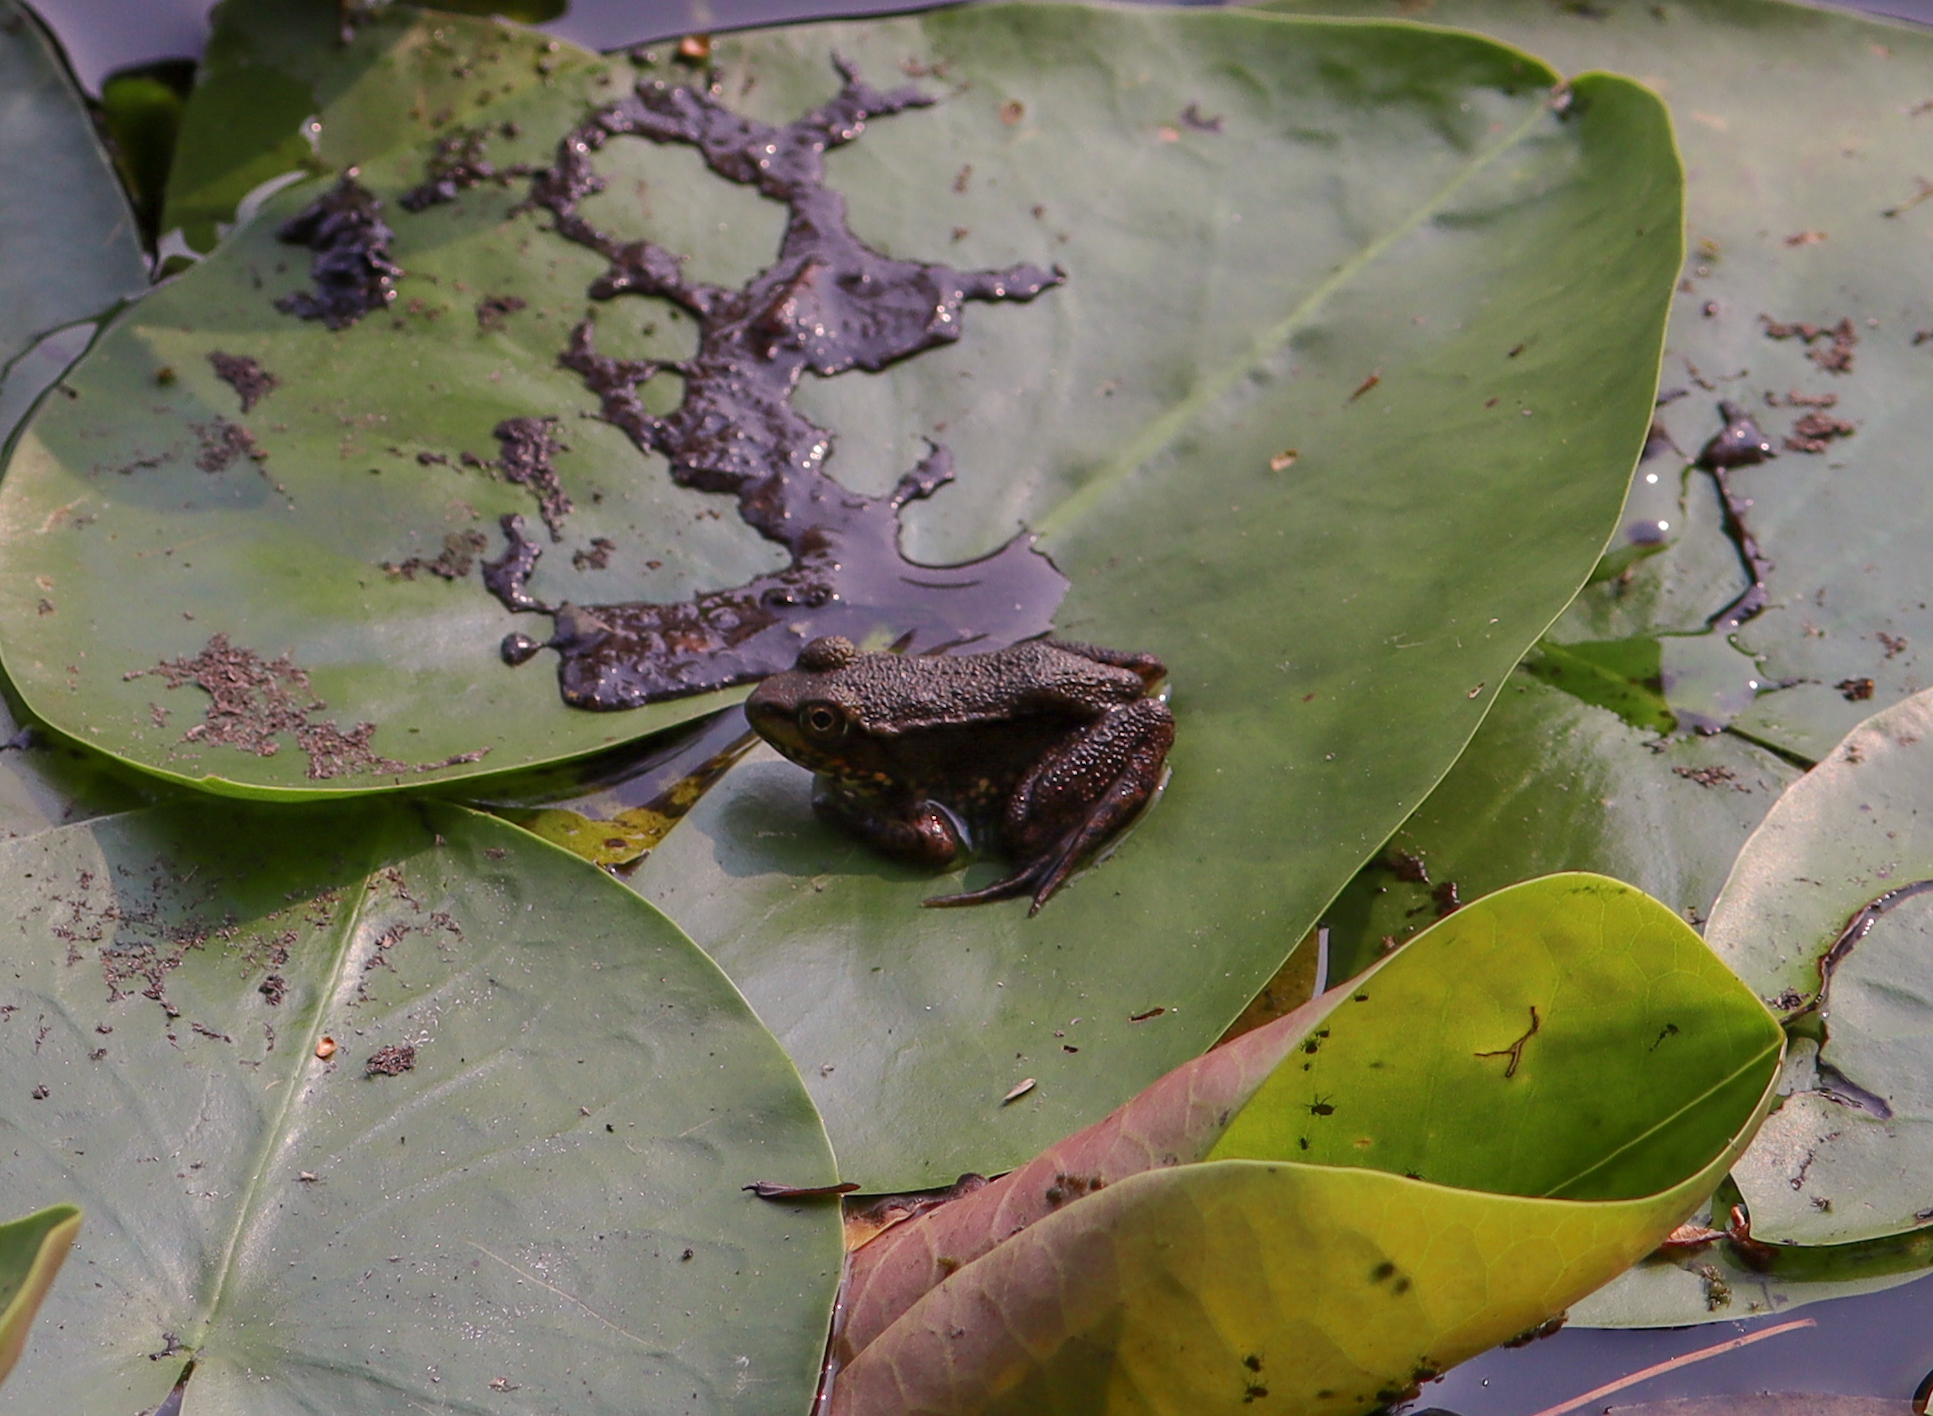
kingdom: Animalia
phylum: Chordata
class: Amphibia
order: Anura
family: Ranidae
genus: Lithobates
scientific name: Lithobates clamitans
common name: Green frog
